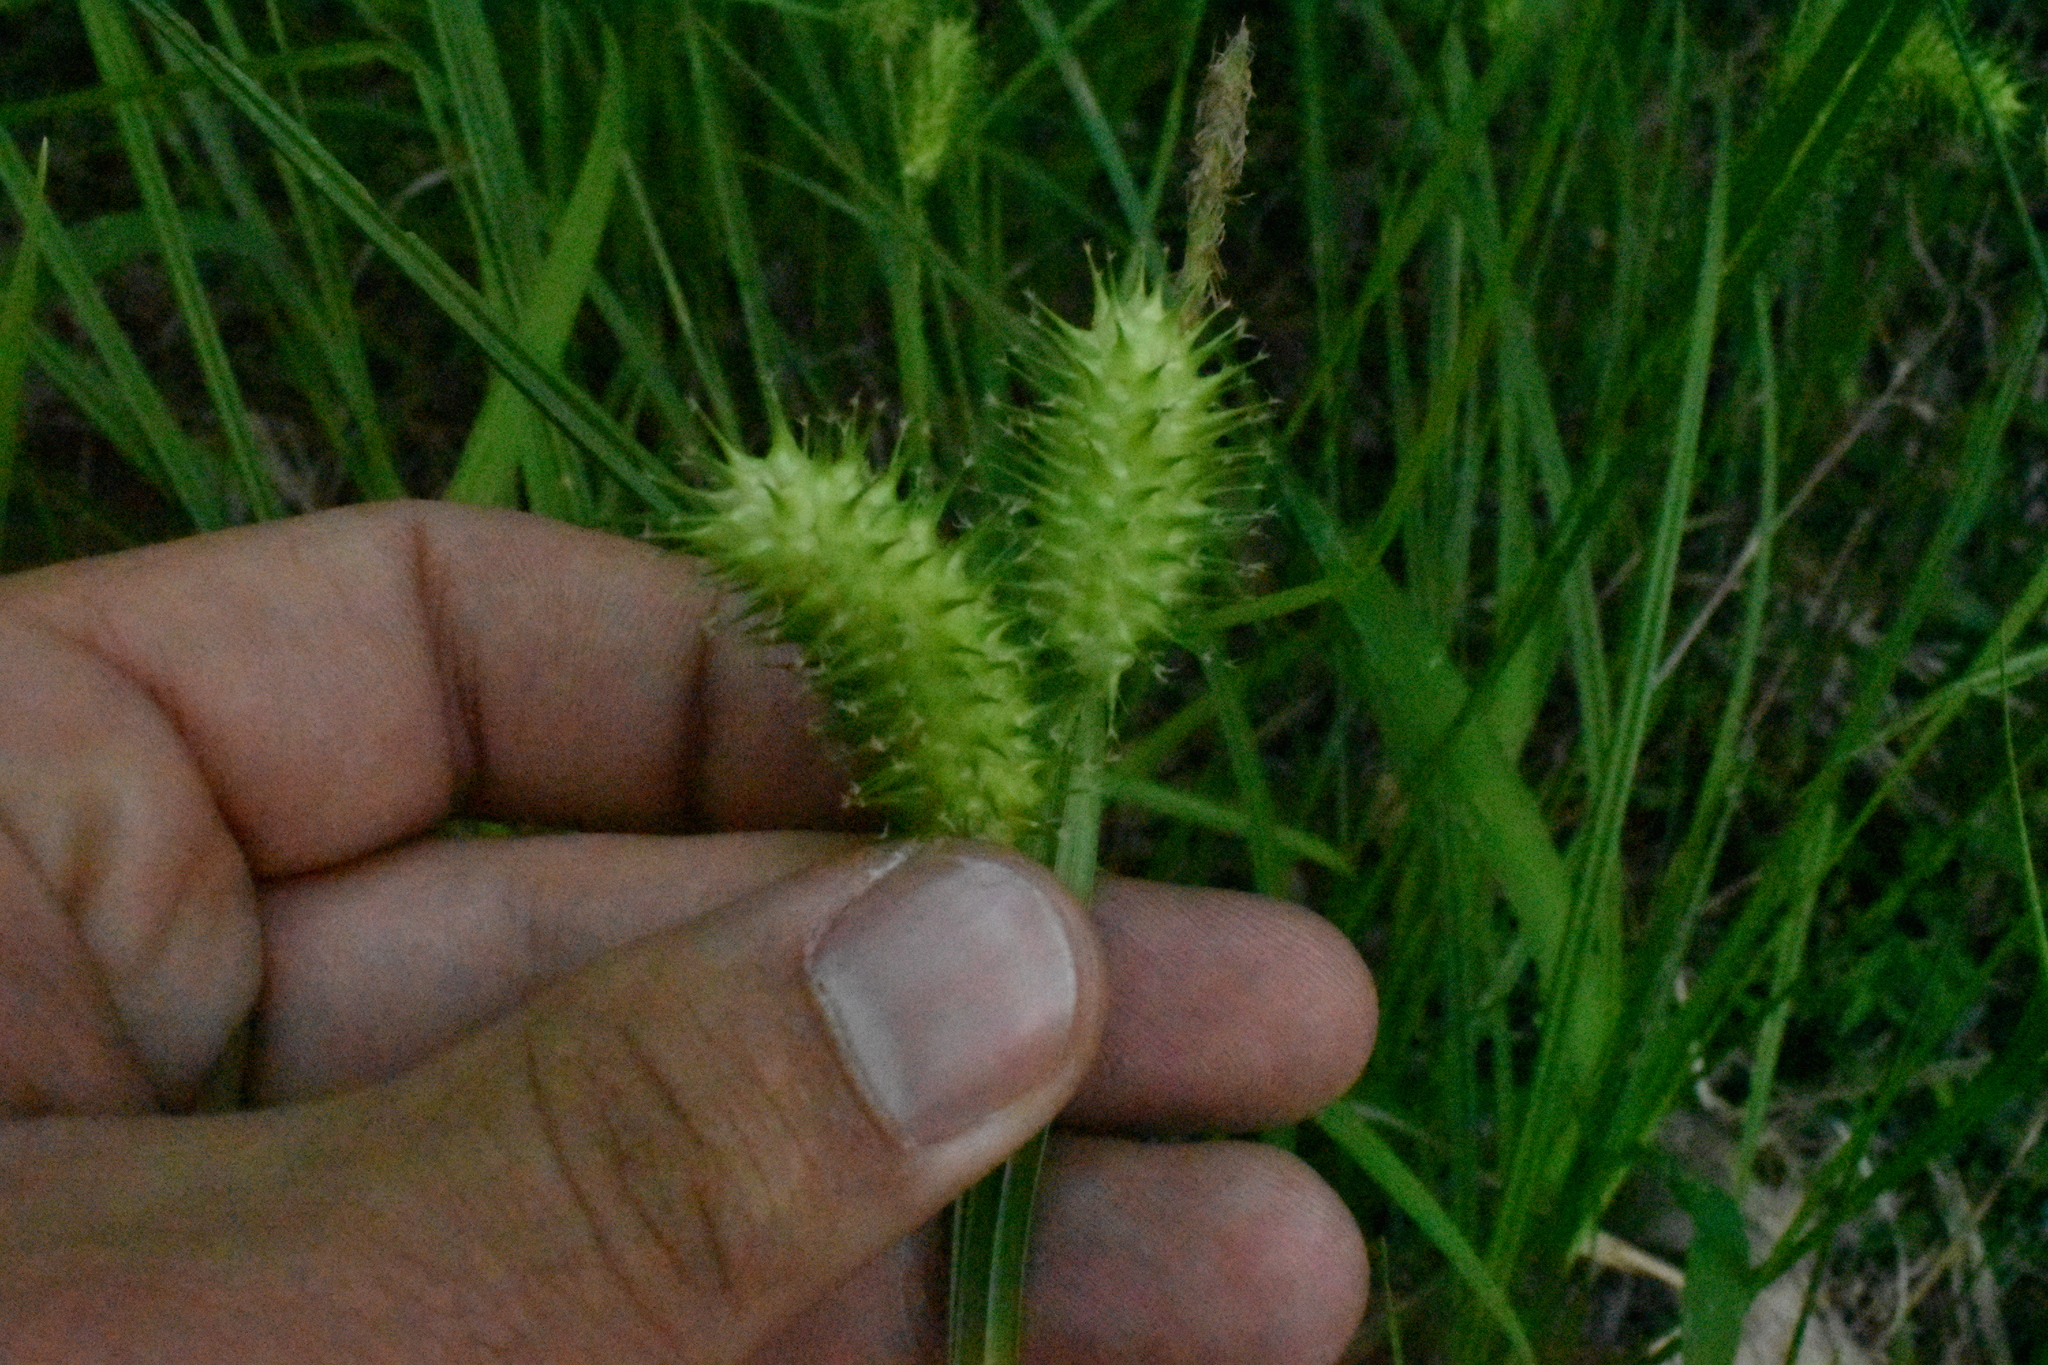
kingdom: Plantae
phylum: Tracheophyta
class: Liliopsida
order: Poales
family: Cyperaceae
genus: Carex
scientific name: Carex lurida
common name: Sallow sedge
